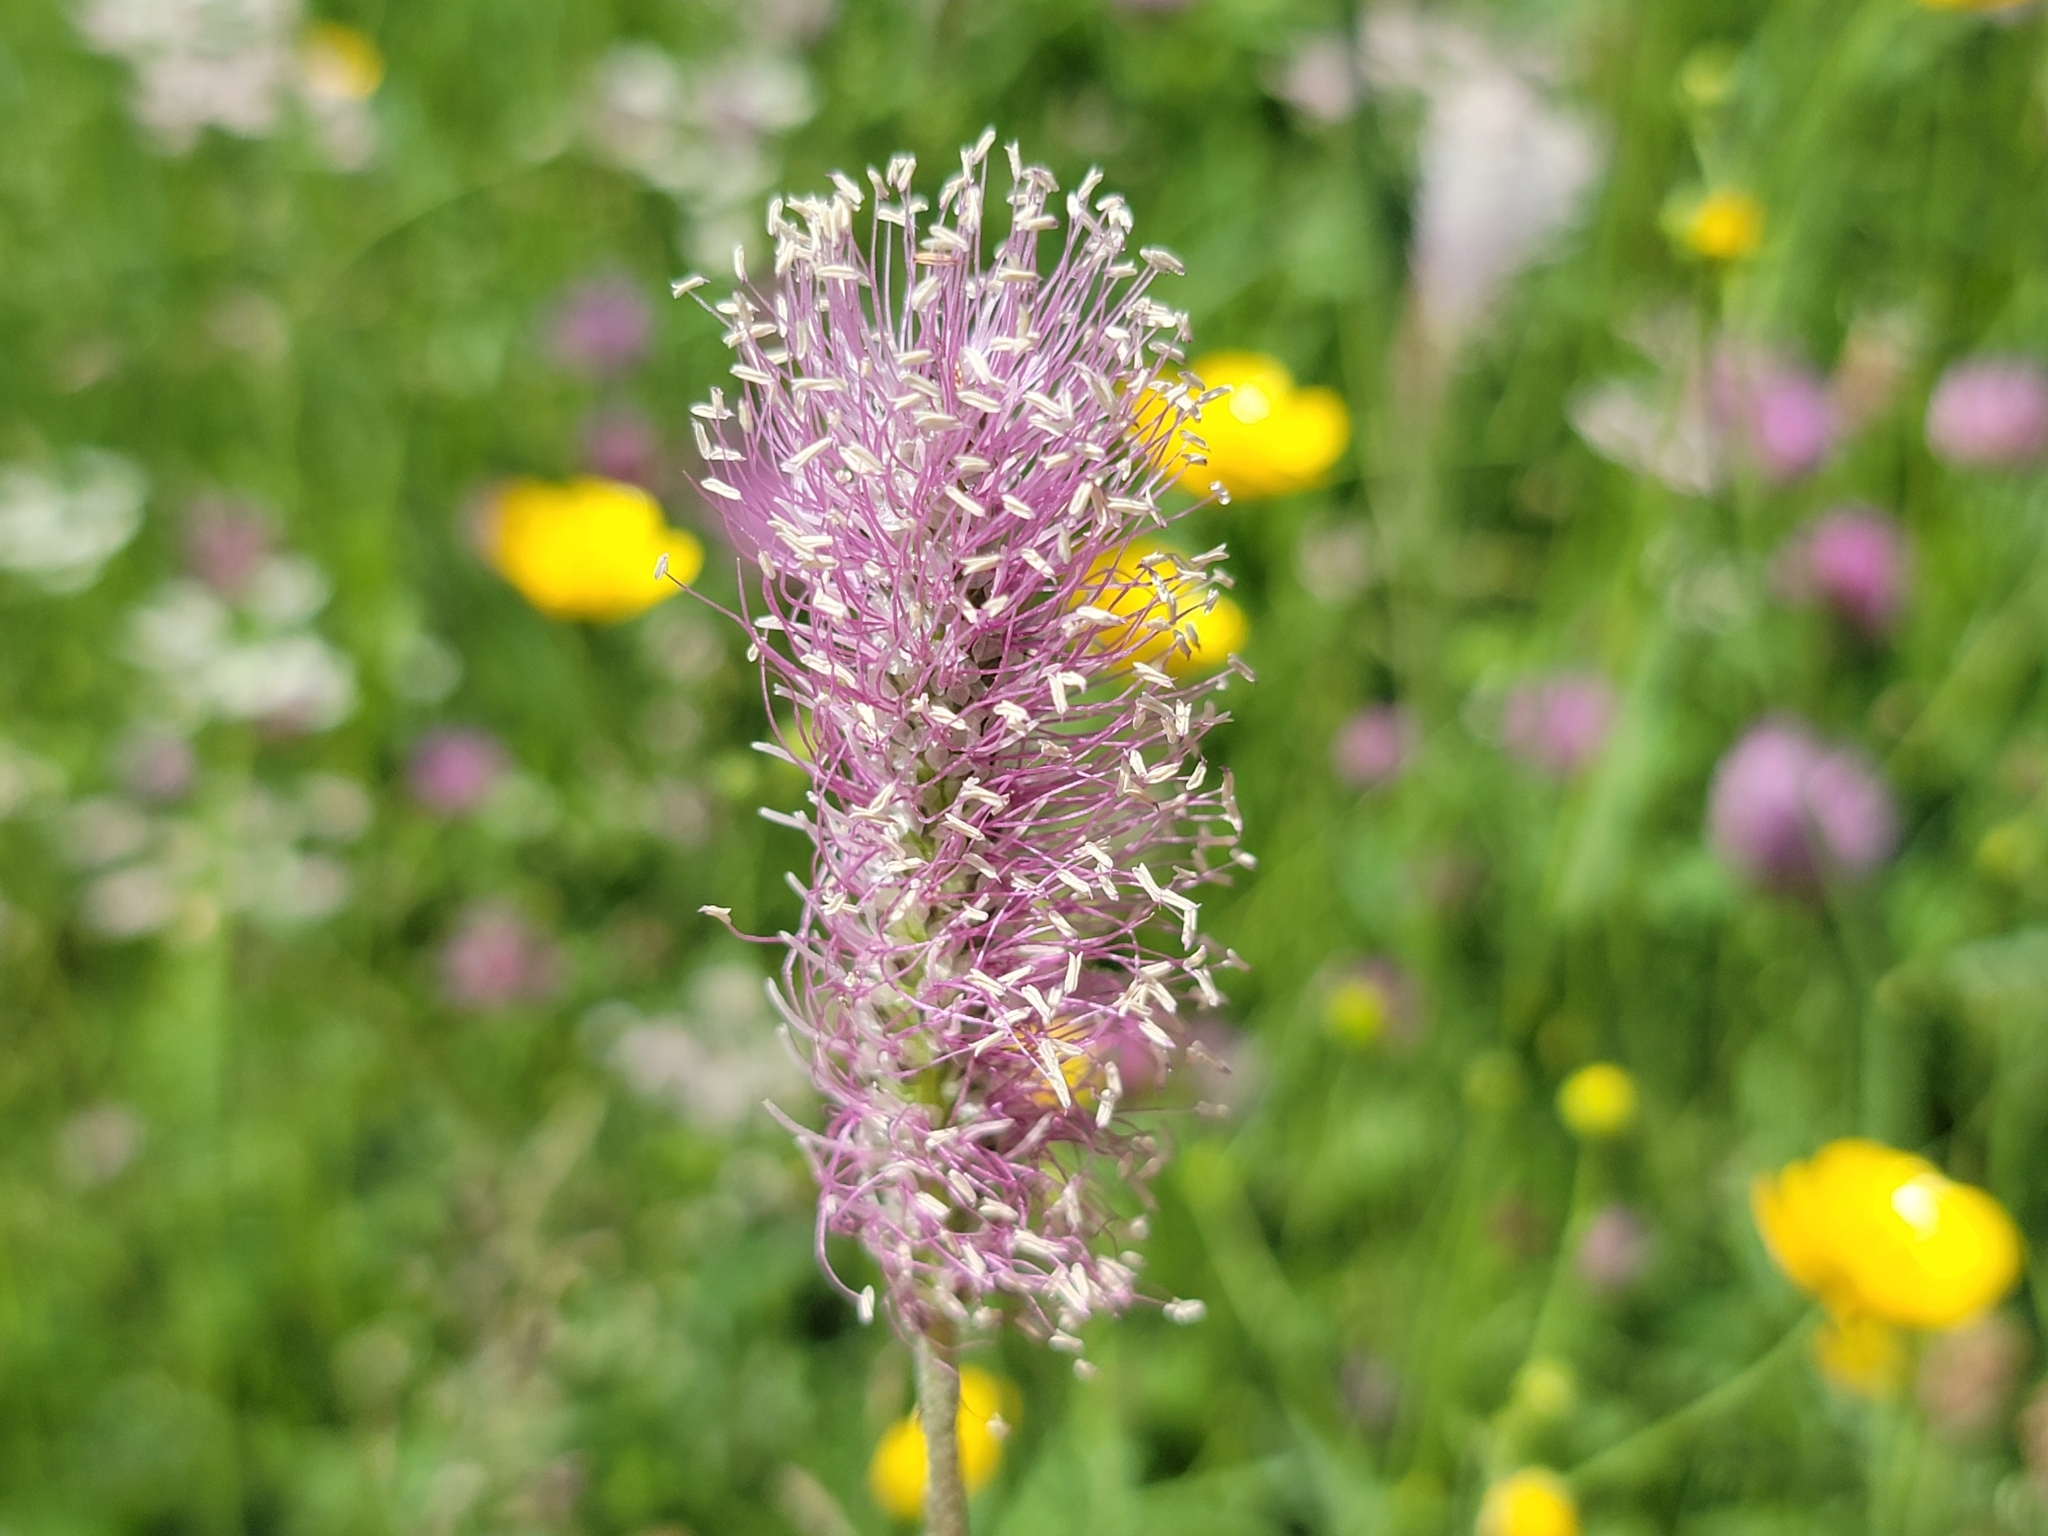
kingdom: Plantae
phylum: Tracheophyta
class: Magnoliopsida
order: Lamiales
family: Plantaginaceae
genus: Plantago
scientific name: Plantago media
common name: Hoary plantain
